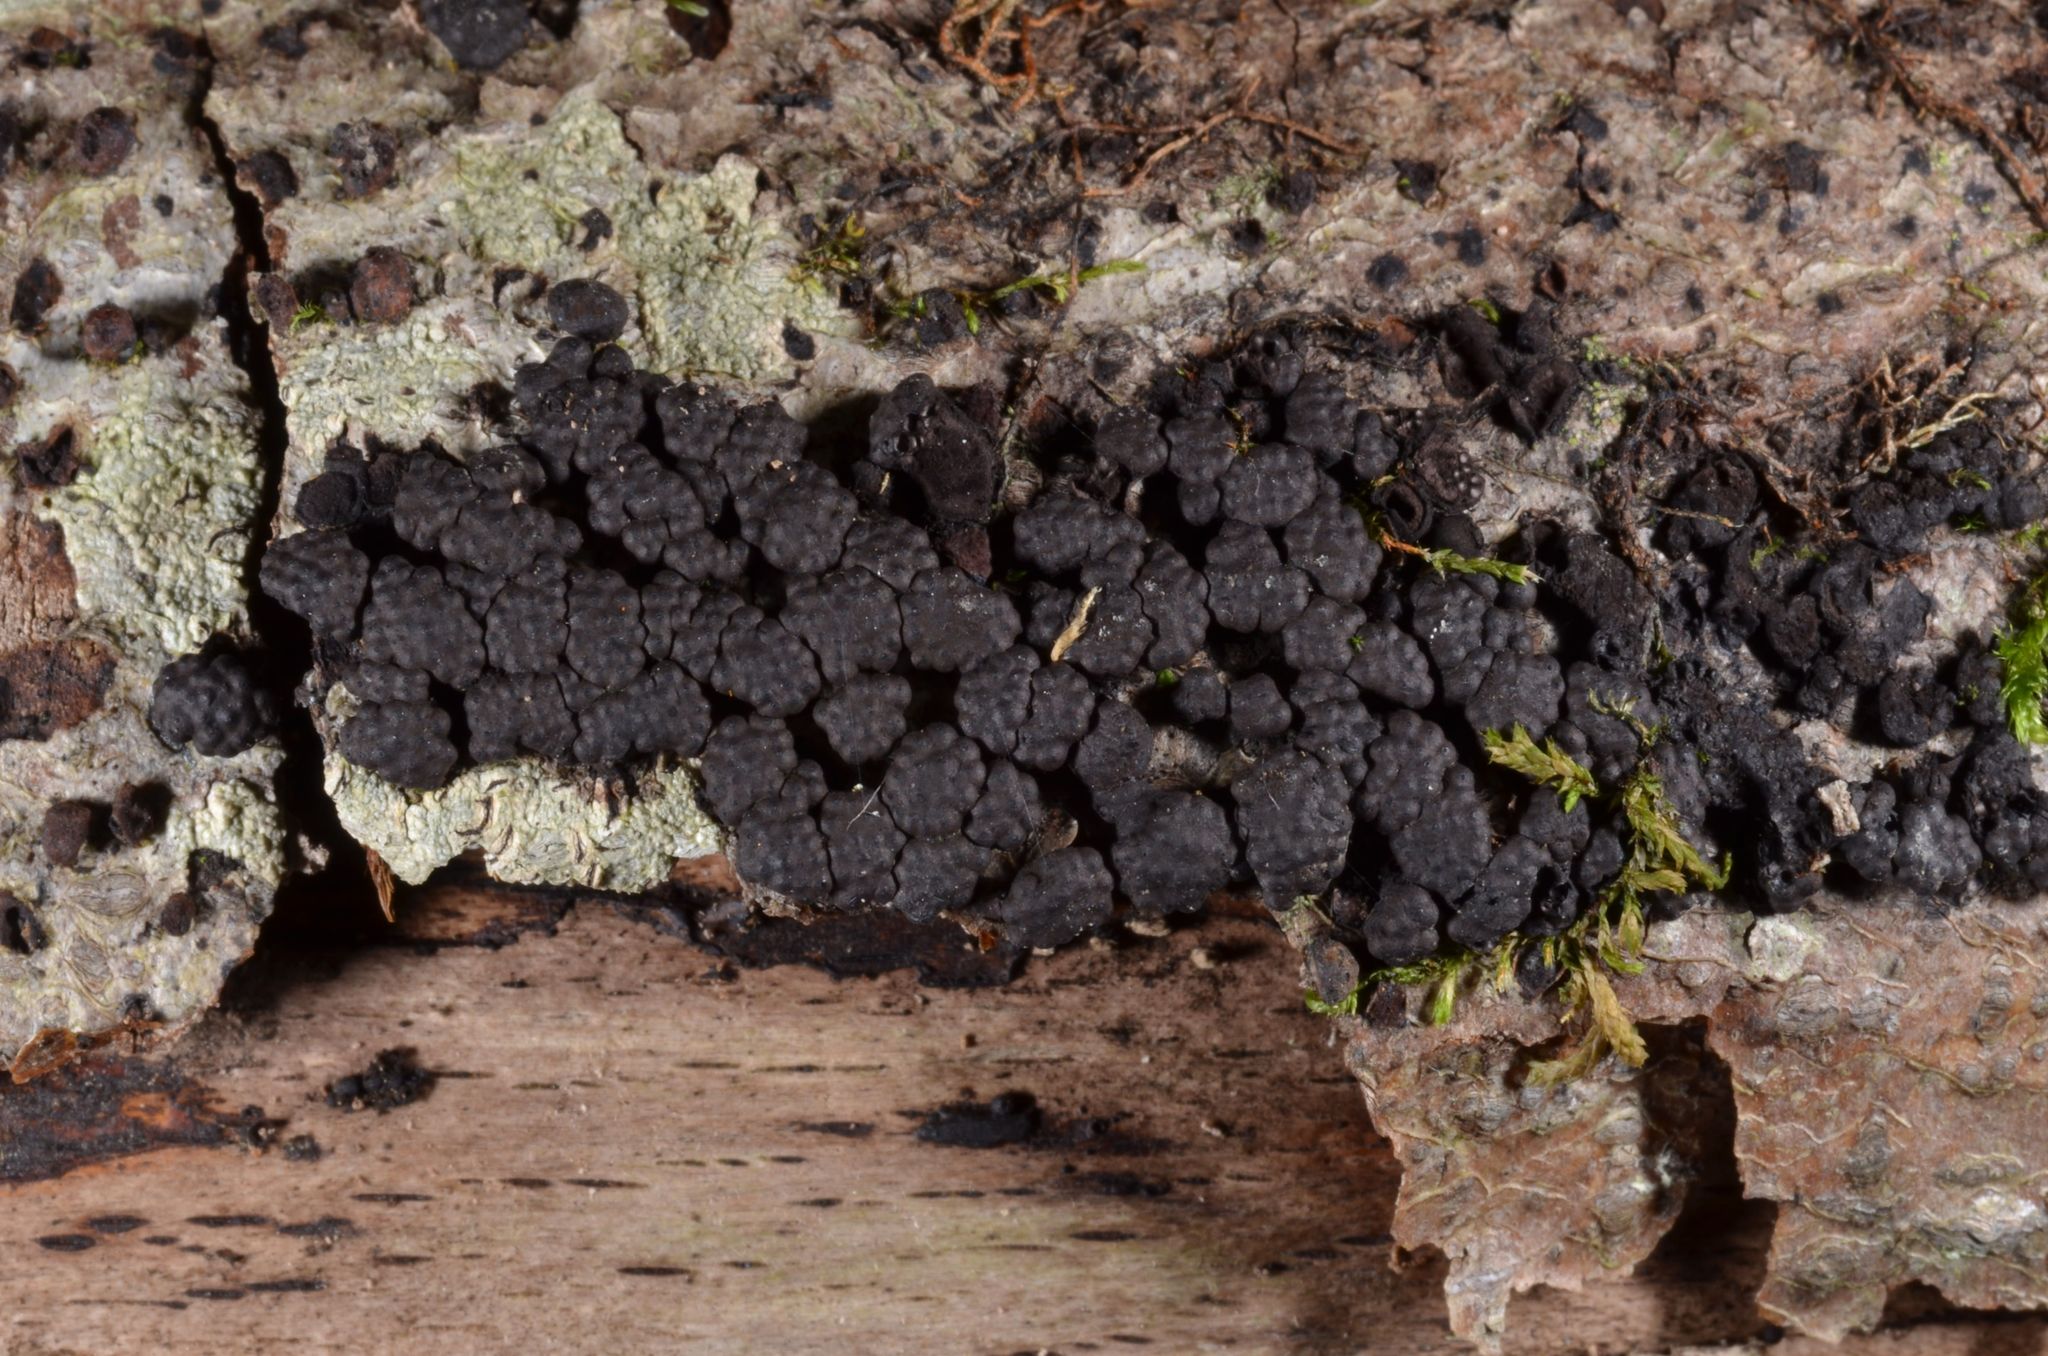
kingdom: Fungi
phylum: Ascomycota
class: Sordariomycetes
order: Xylariales
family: Hypoxylaceae
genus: Jackrogersella
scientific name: Jackrogersella cohaerens
